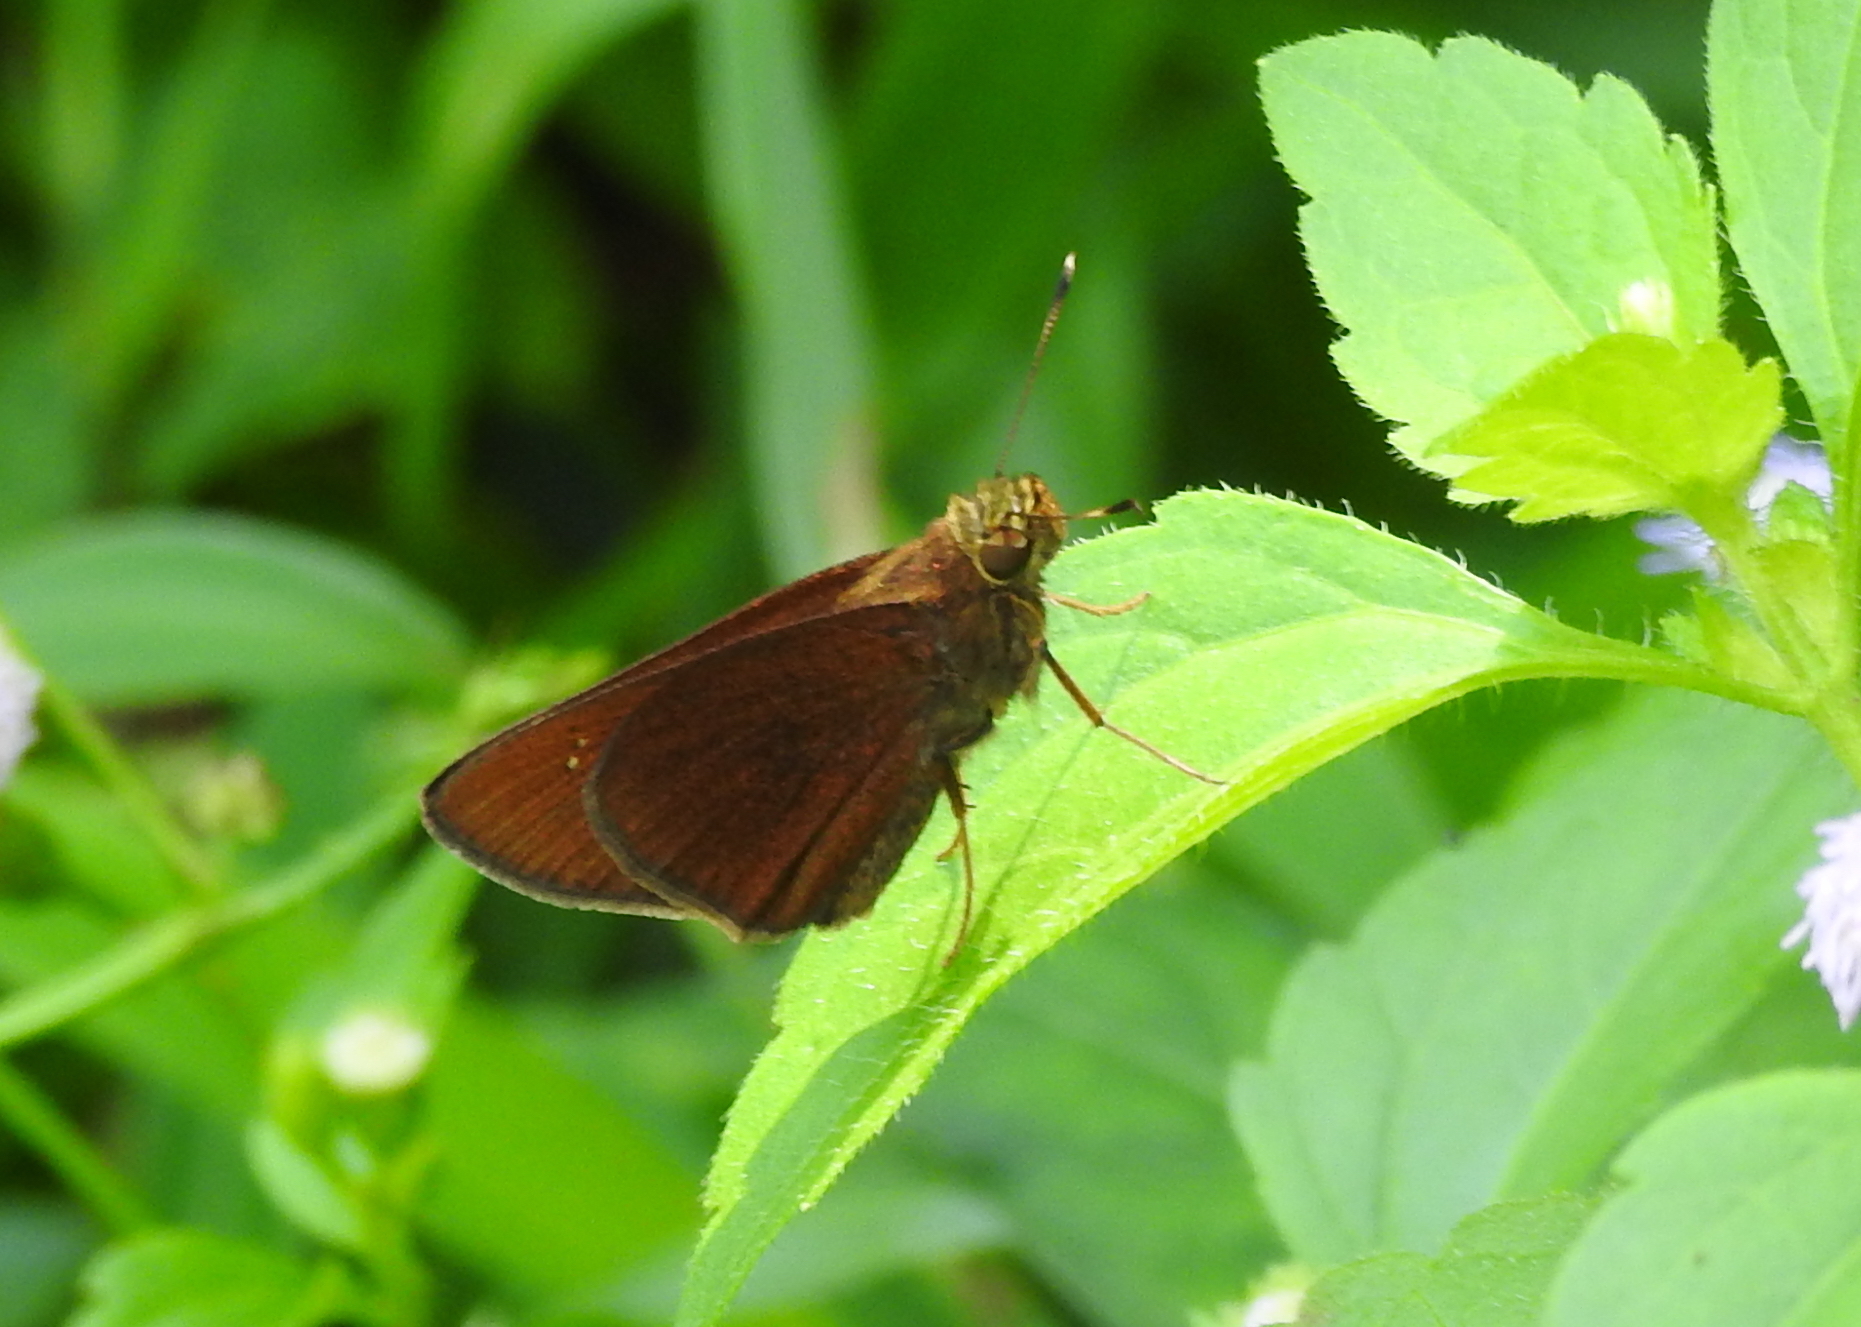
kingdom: Animalia
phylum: Arthropoda
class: Insecta
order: Lepidoptera
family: Hesperiidae
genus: Caltoris
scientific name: Caltoris cormasa
